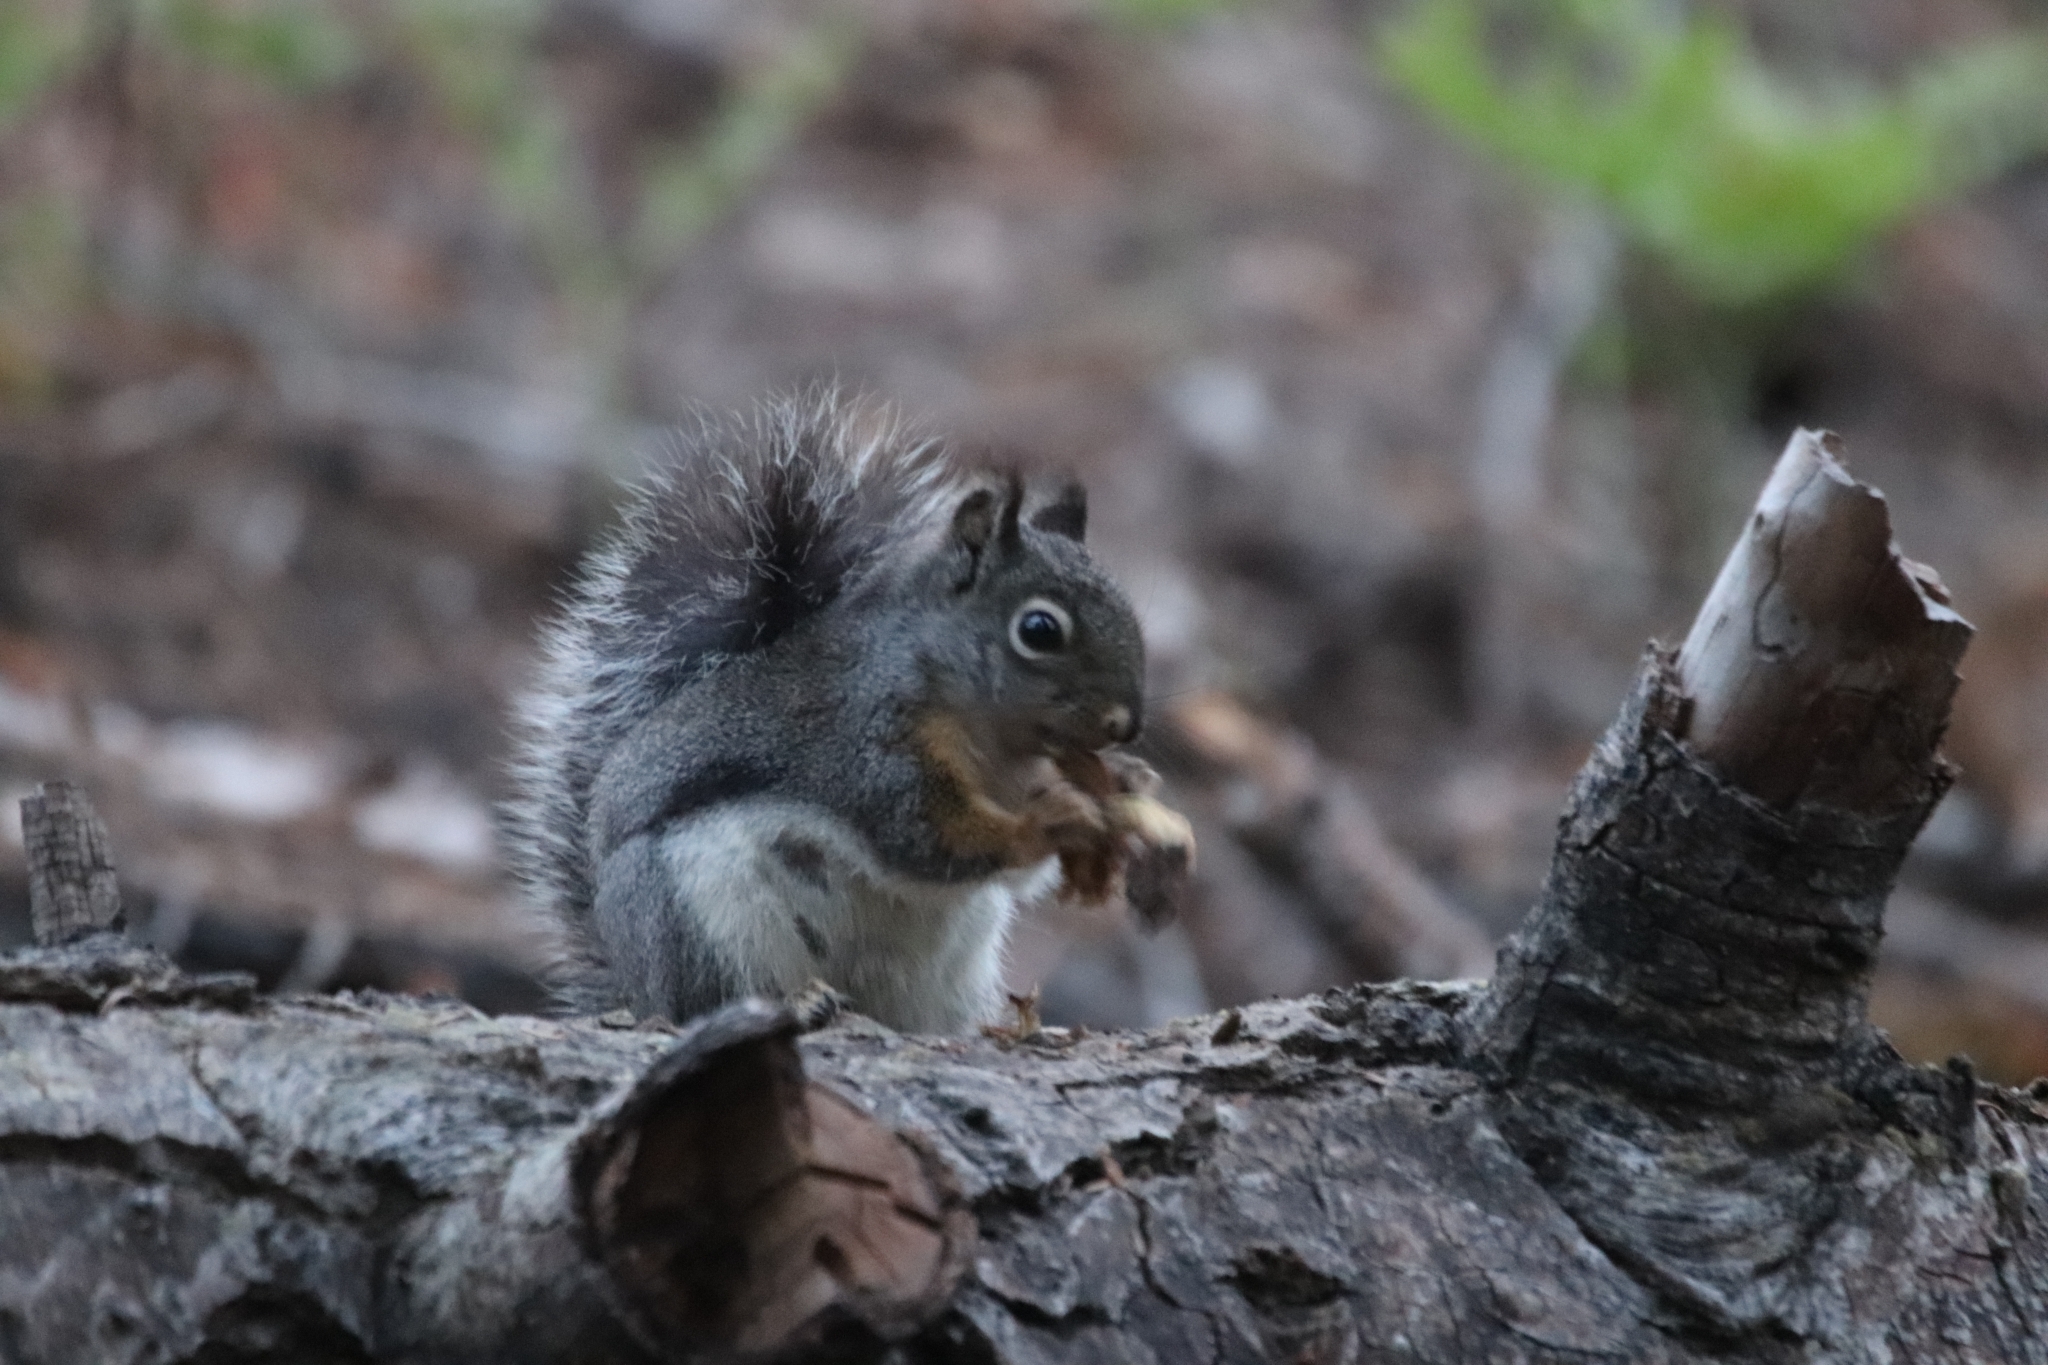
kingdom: Animalia
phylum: Chordata
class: Mammalia
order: Rodentia
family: Sciuridae
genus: Tamiasciurus
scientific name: Tamiasciurus douglasii
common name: Douglas's squirrel
